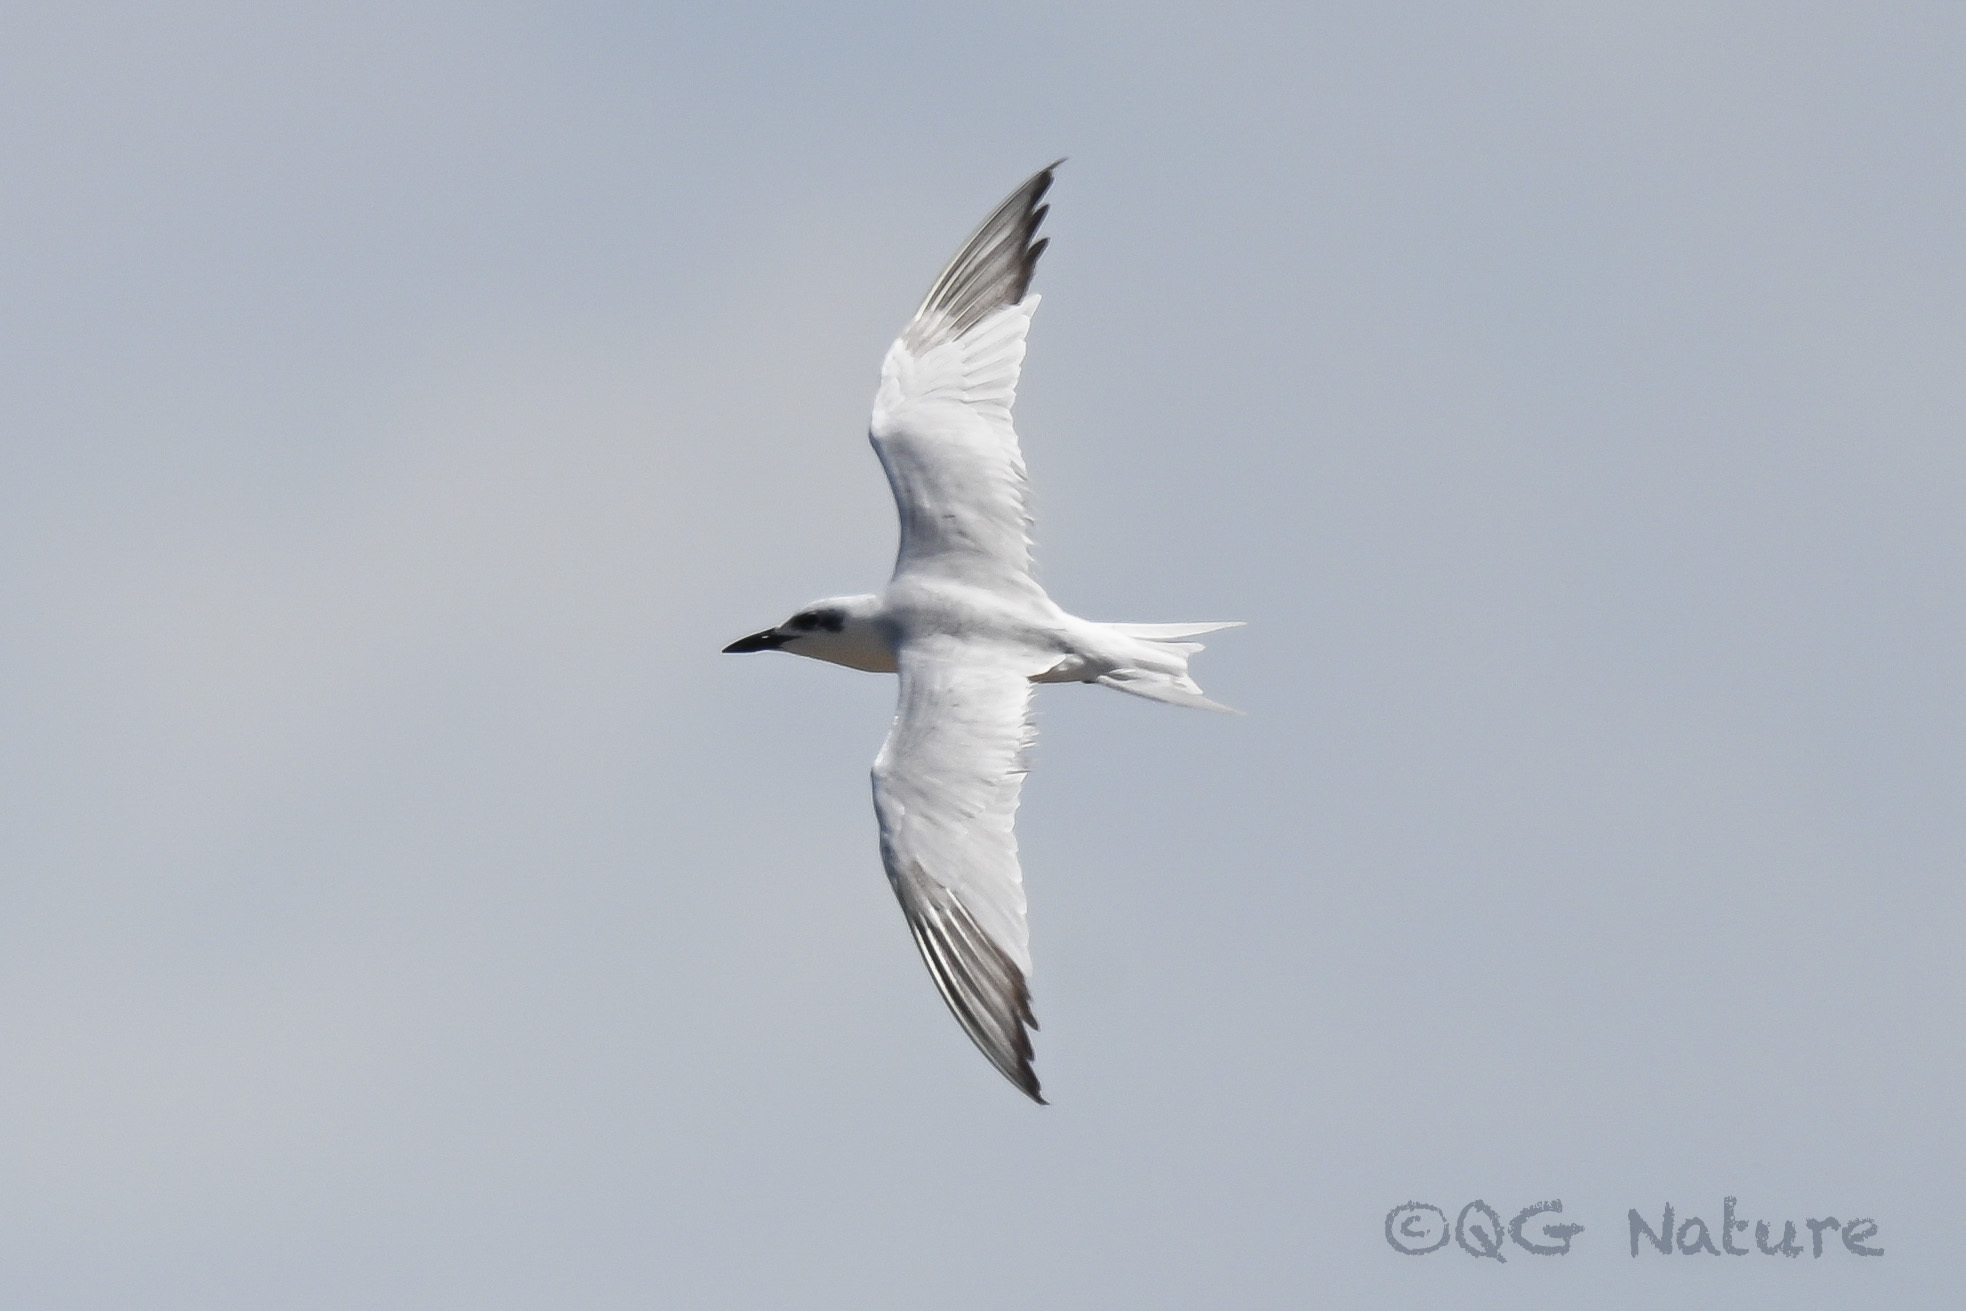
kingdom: Animalia
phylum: Chordata
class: Aves
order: Charadriiformes
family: Laridae
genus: Gelochelidon
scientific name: Gelochelidon nilotica
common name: Gull-billed tern
